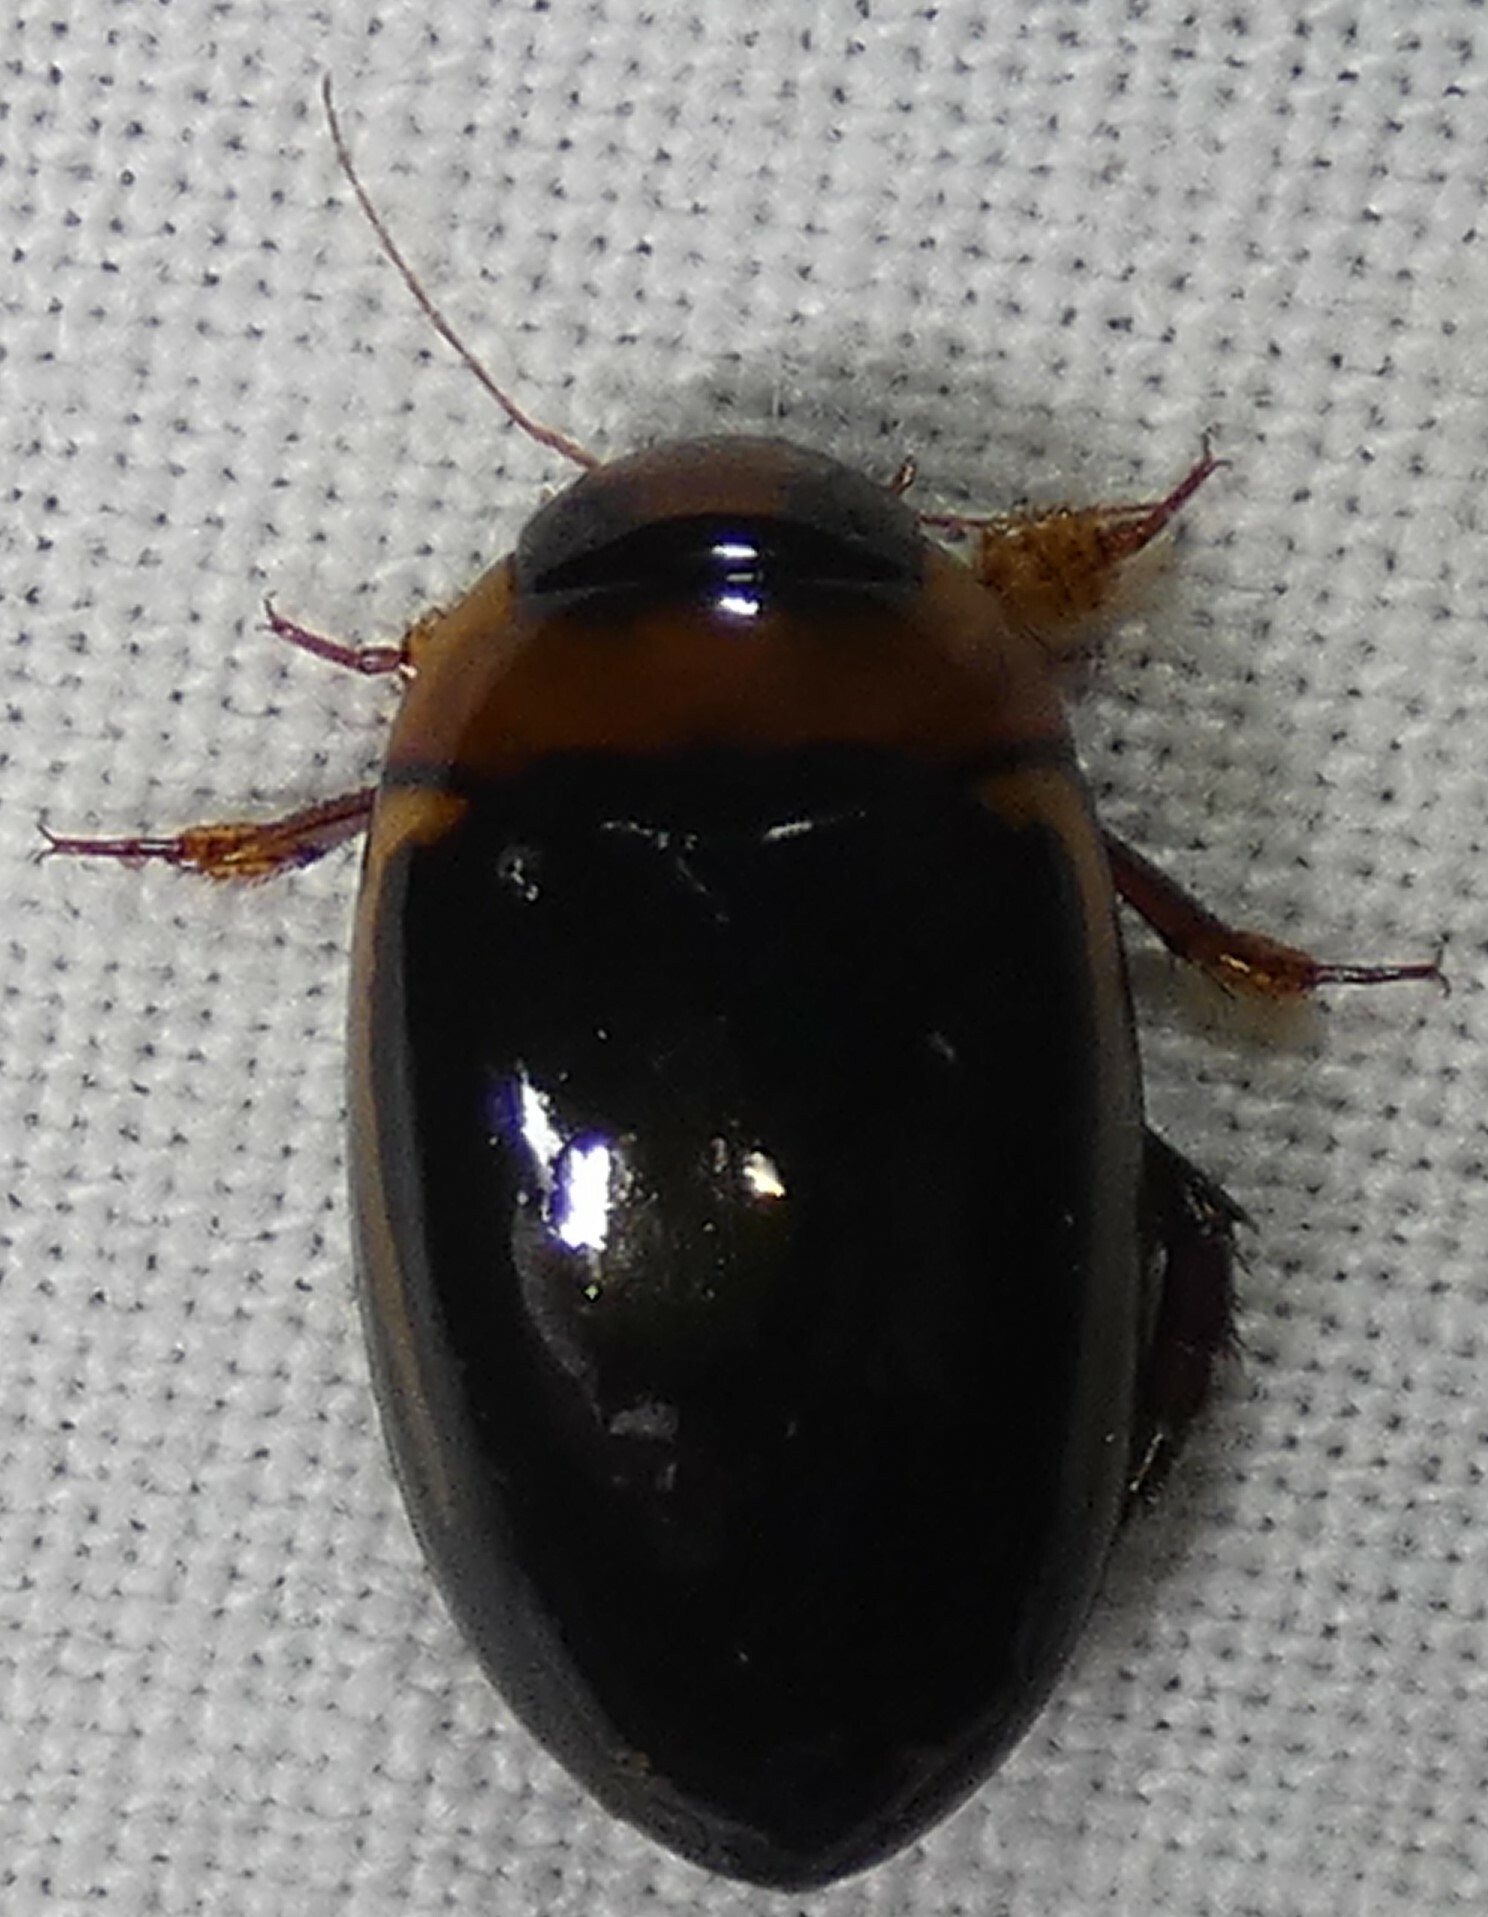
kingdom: Animalia
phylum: Arthropoda
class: Insecta
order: Coleoptera
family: Dytiscidae
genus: Hydaticus
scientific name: Hydaticus bimarginatus
